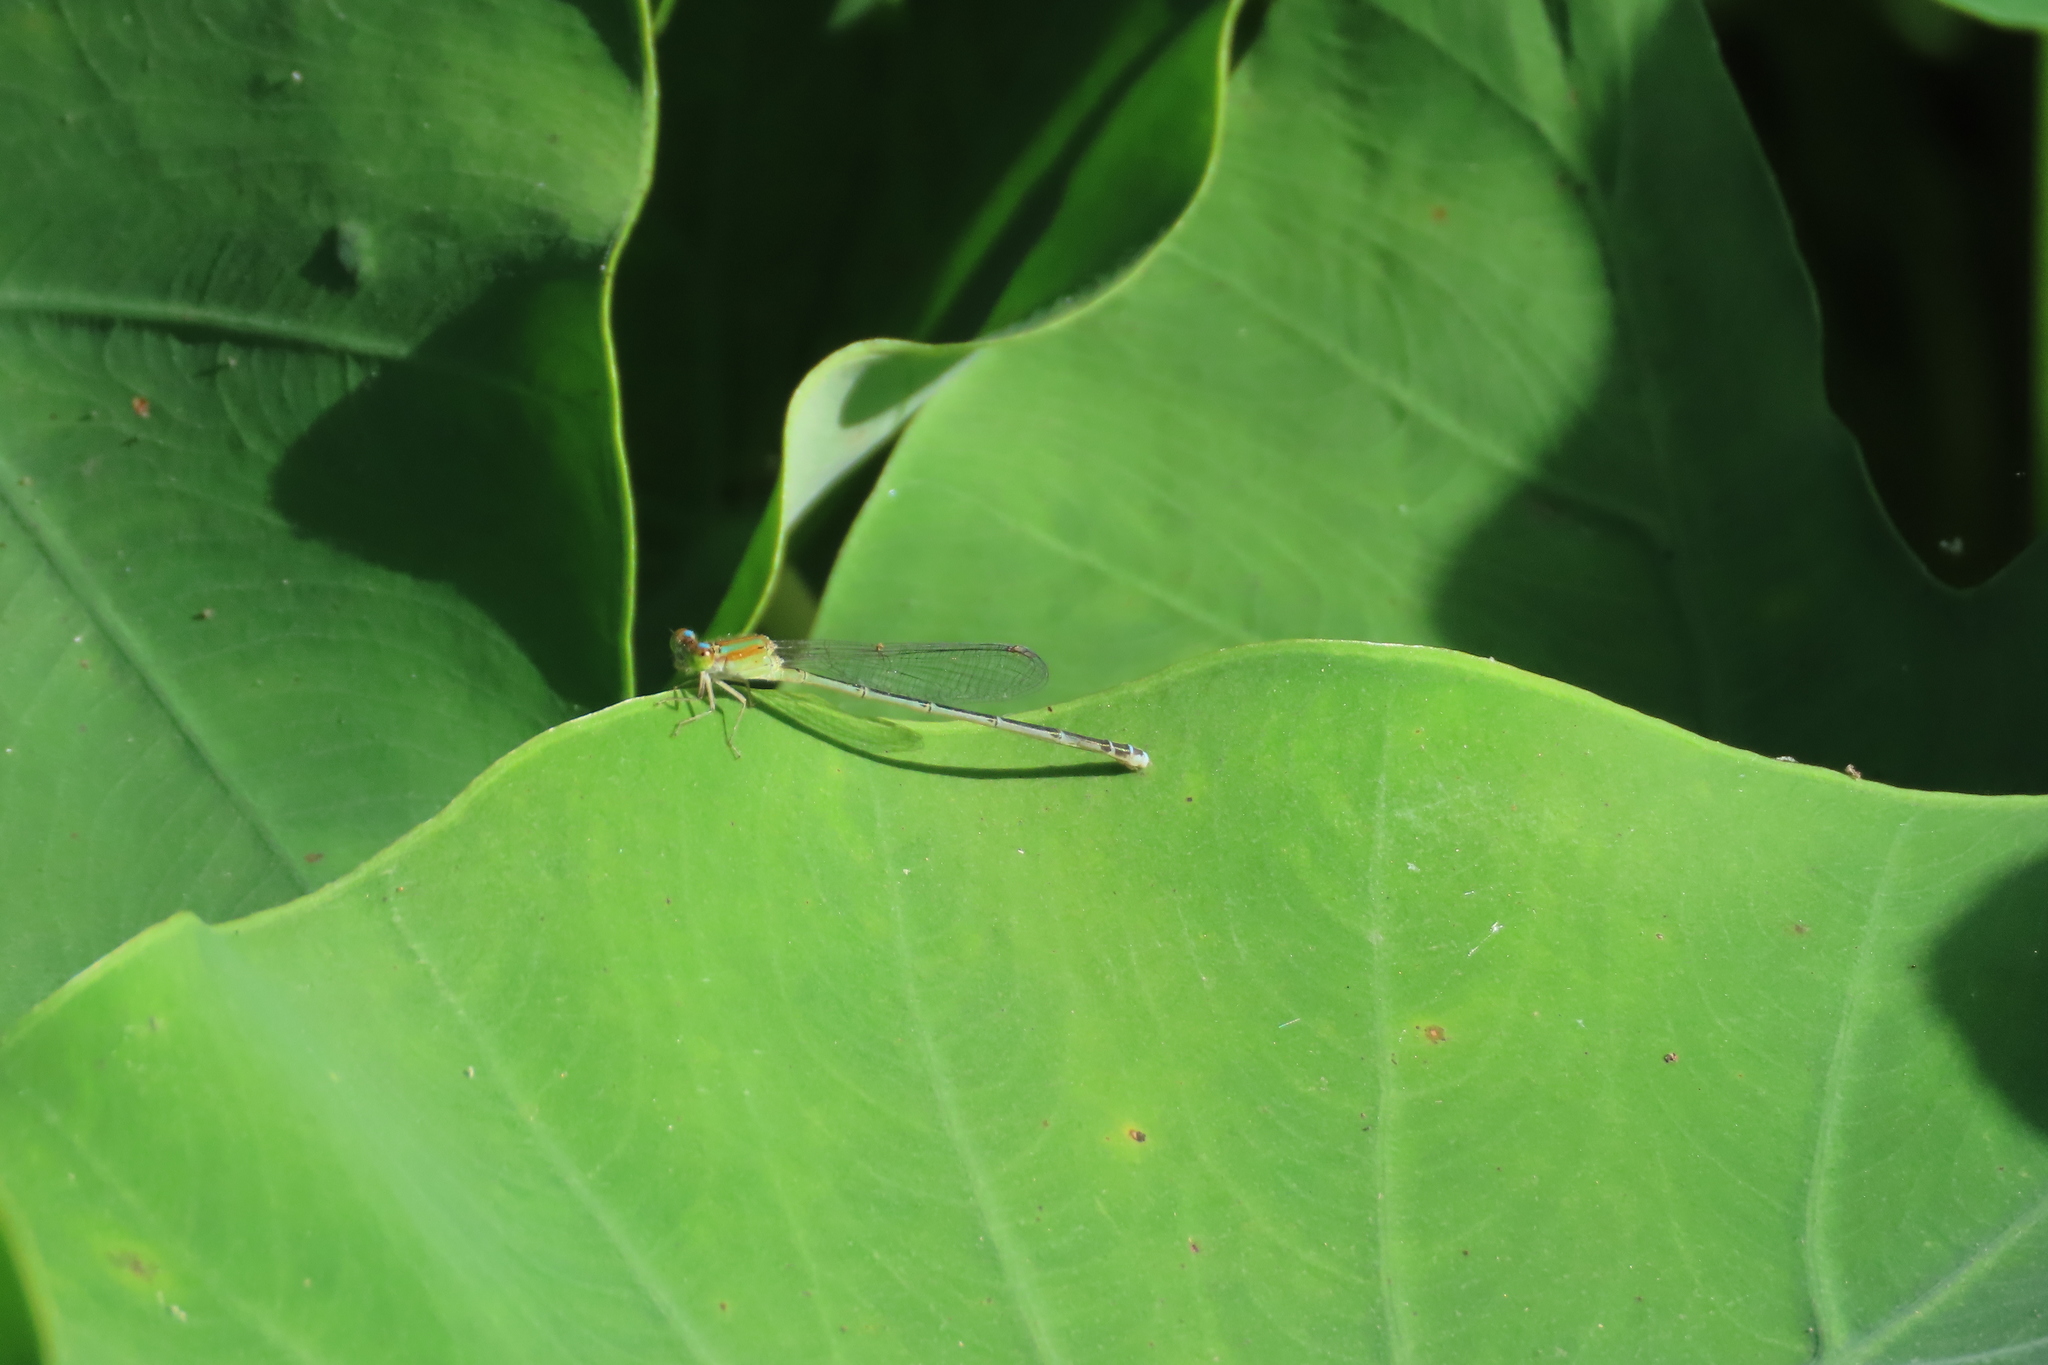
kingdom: Animalia
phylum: Arthropoda
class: Insecta
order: Odonata
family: Coenagrionidae
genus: Pseudagrion
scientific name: Pseudagrion microcephalum
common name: Blue riverdamsel
